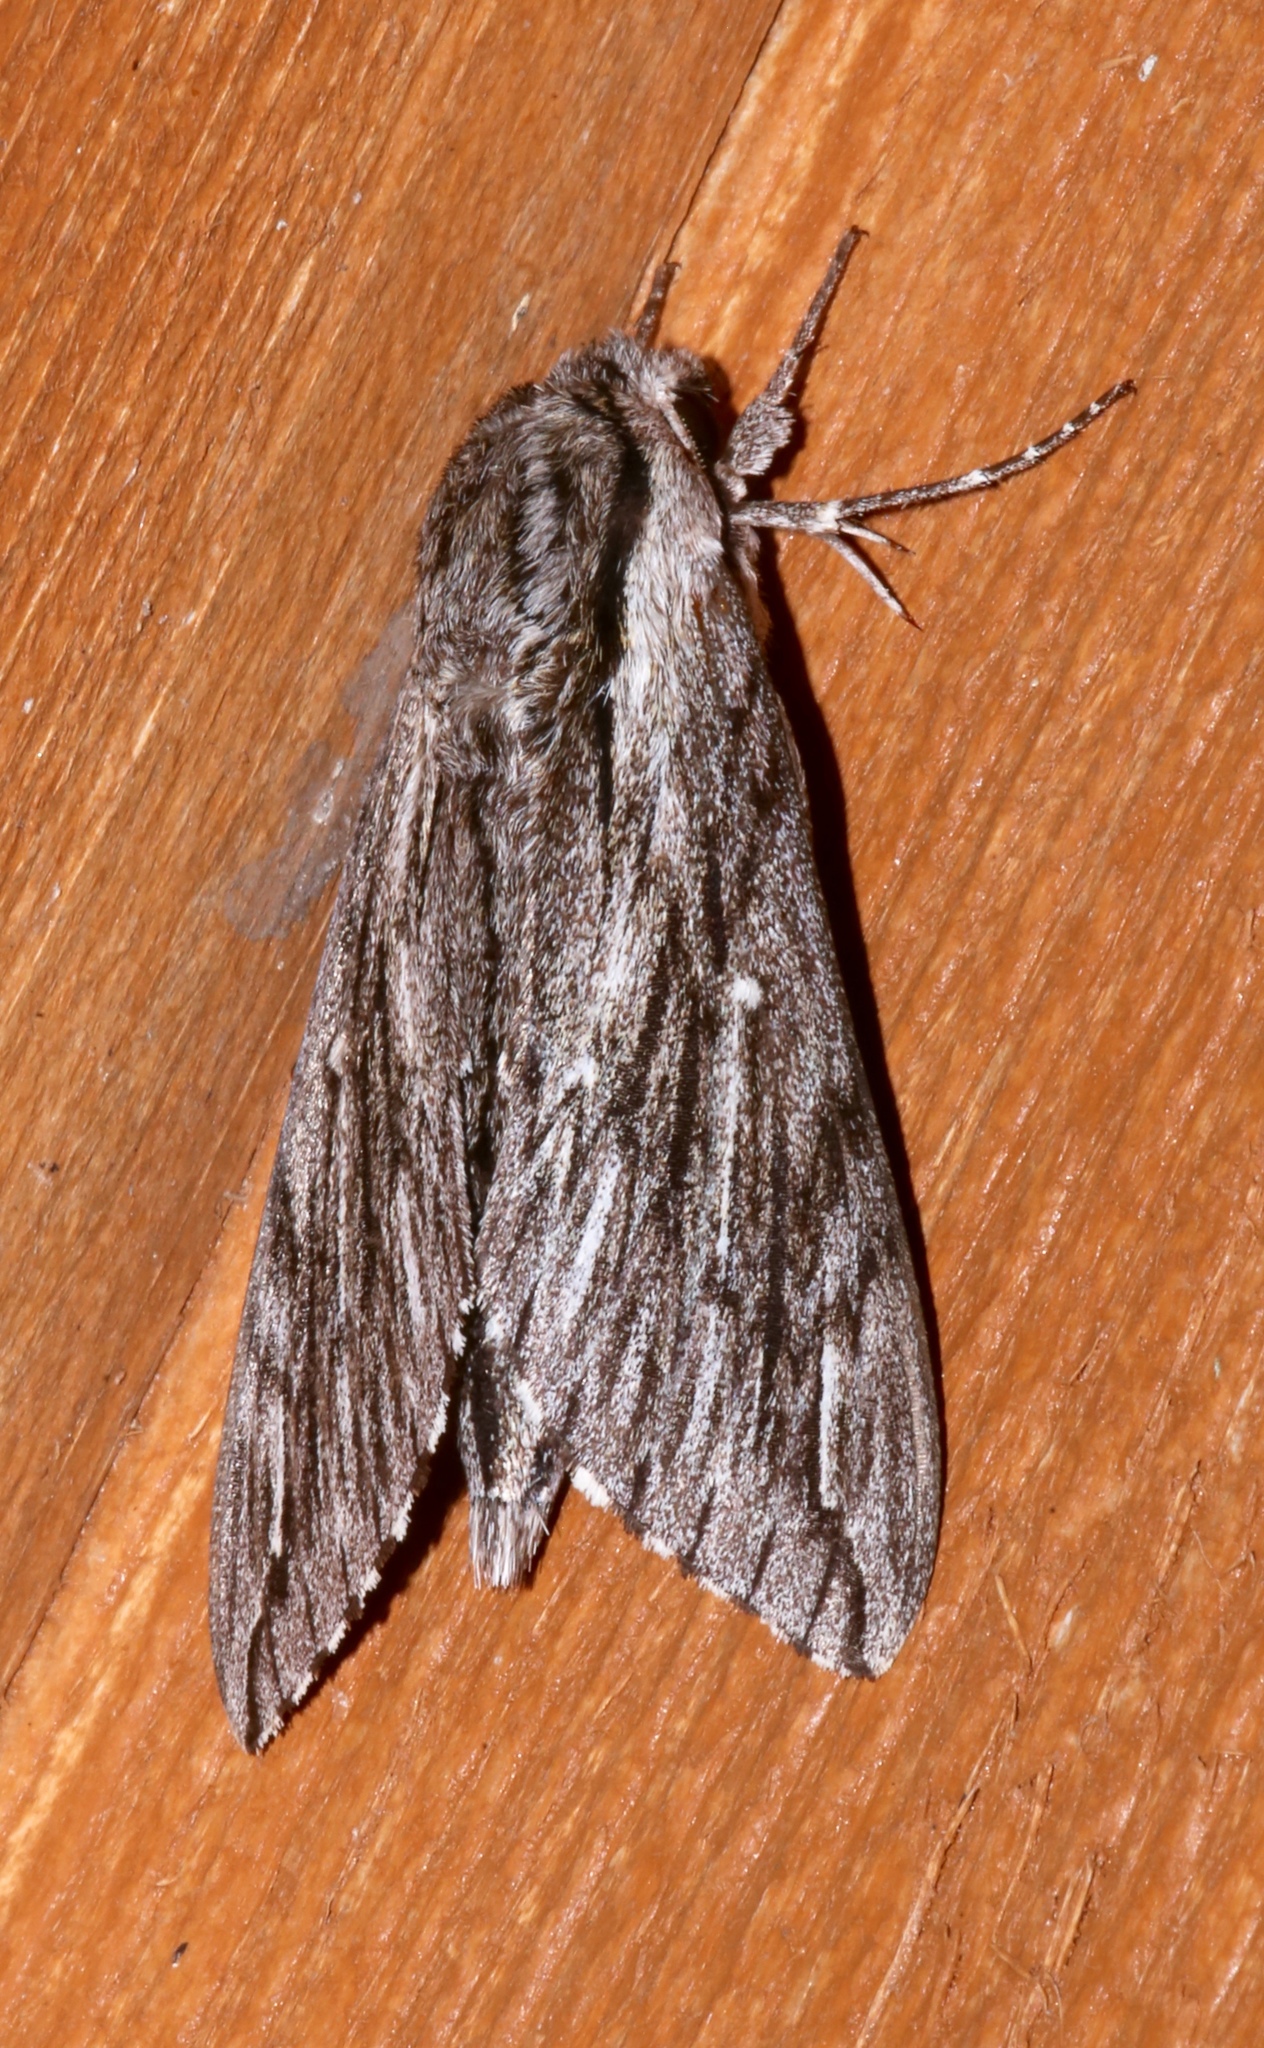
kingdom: Animalia
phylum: Arthropoda
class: Insecta
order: Lepidoptera
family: Sphingidae
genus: Paratrea
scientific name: Paratrea plebeja
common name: Plebian sphinx
